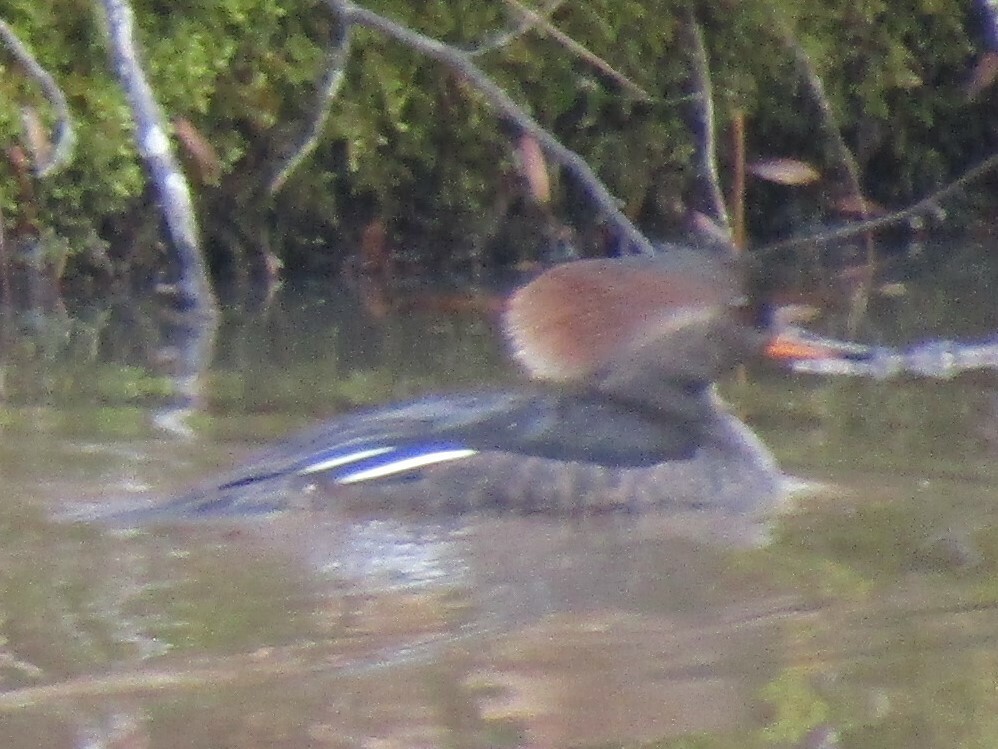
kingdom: Animalia
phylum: Chordata
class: Aves
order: Anseriformes
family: Anatidae
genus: Lophodytes
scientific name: Lophodytes cucullatus
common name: Hooded merganser
